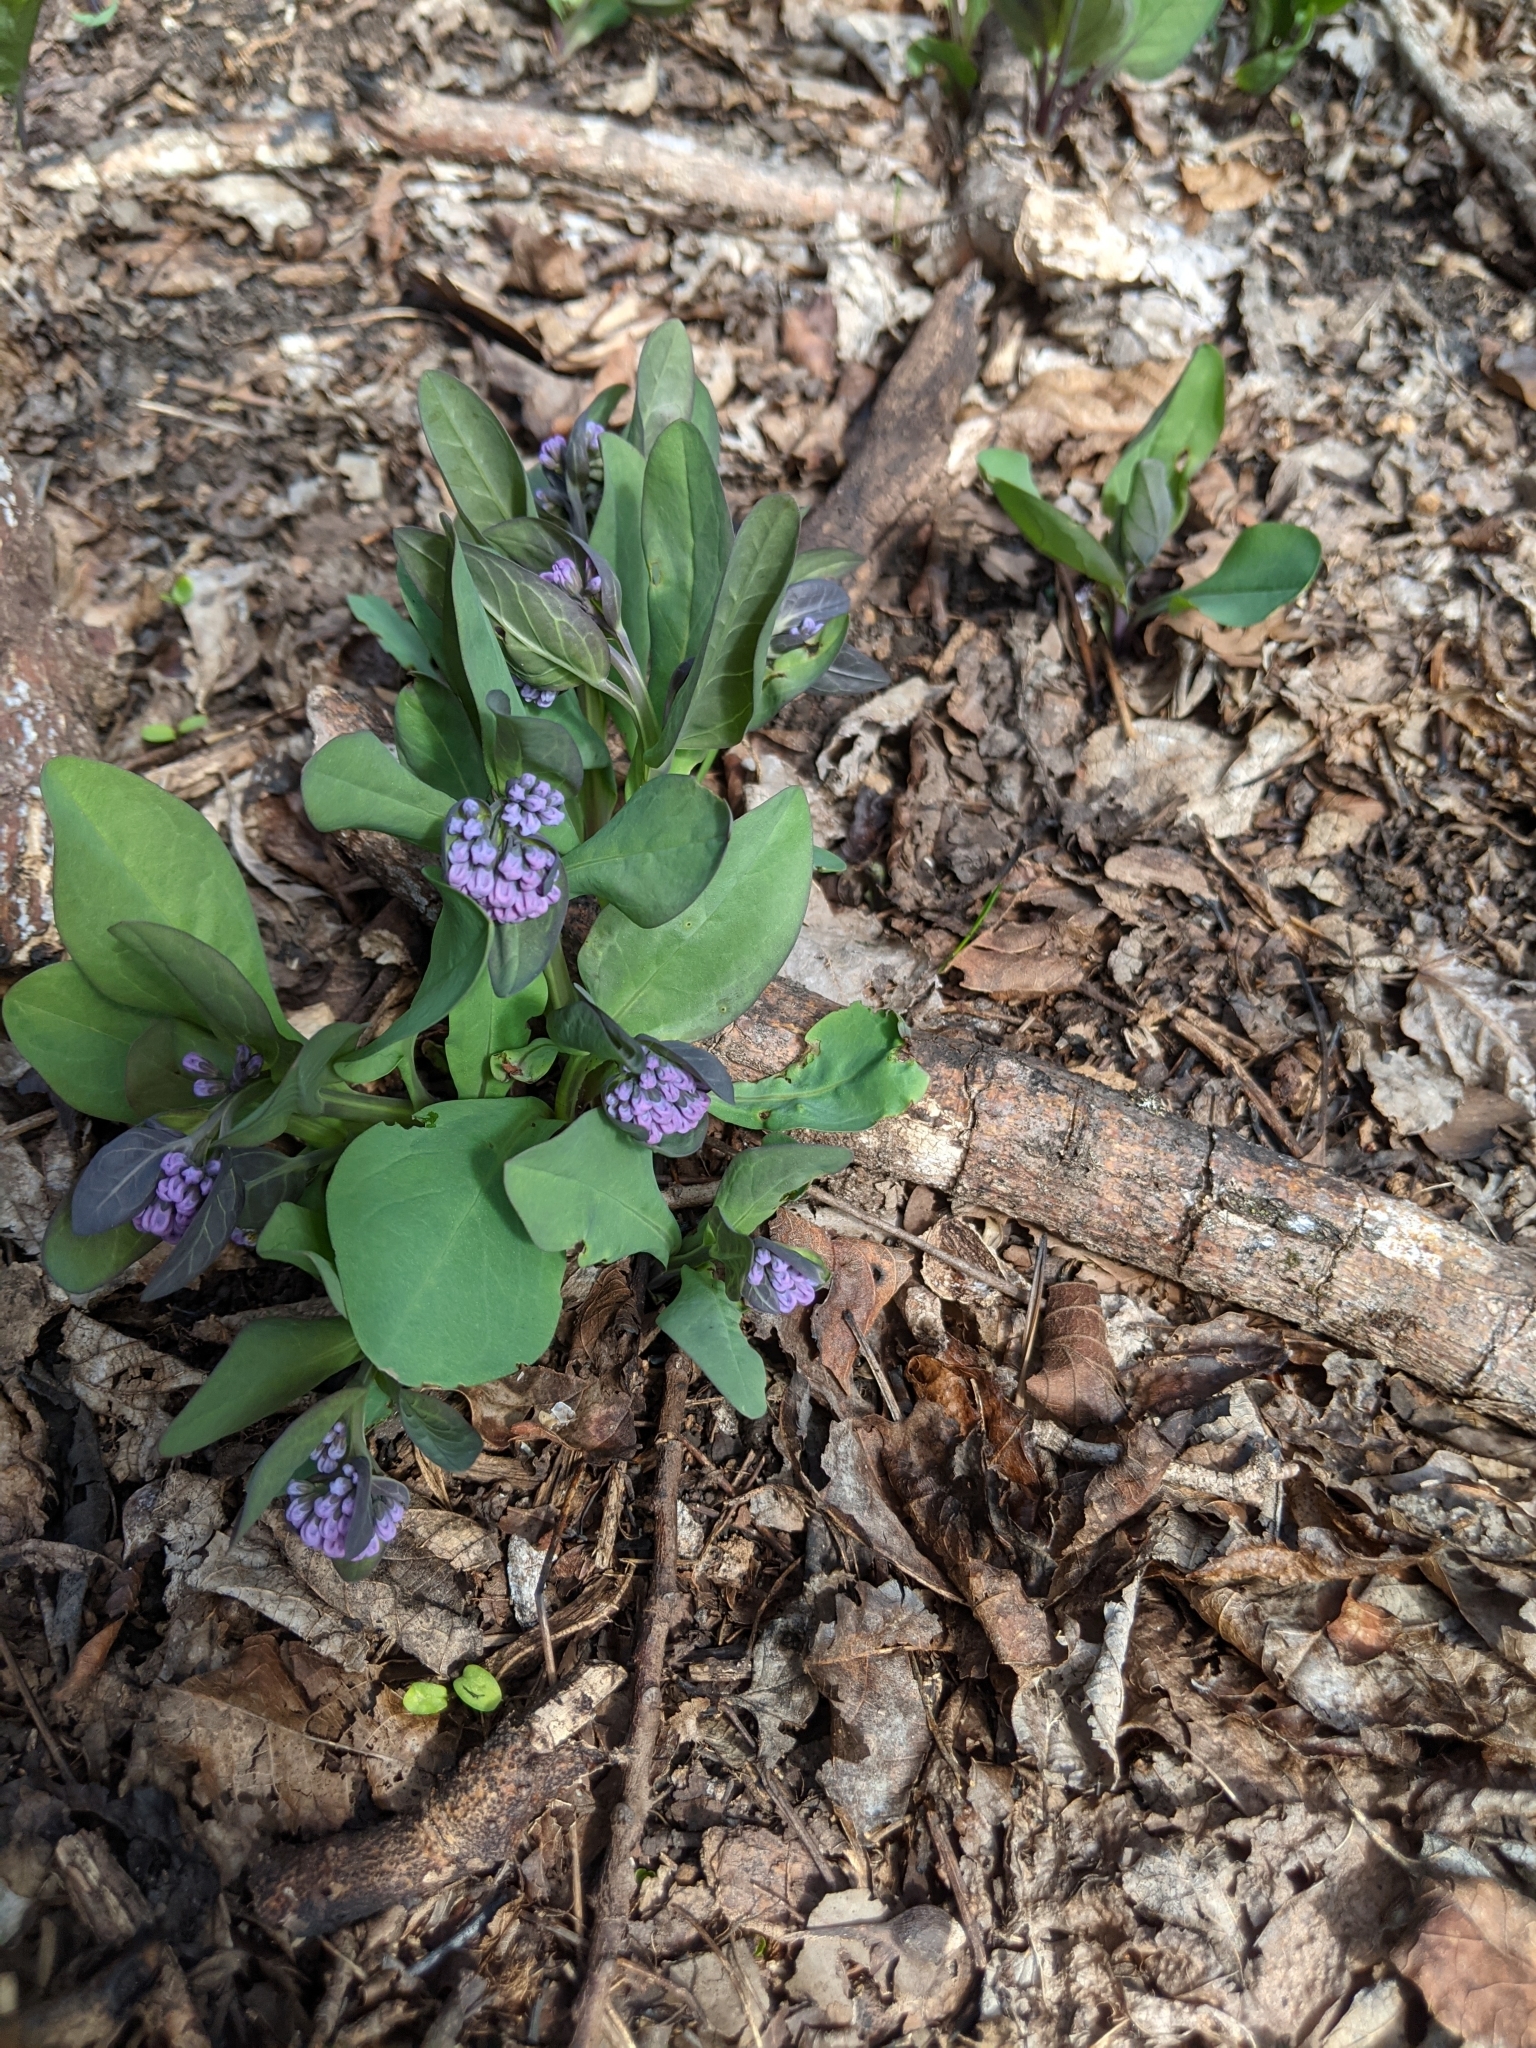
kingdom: Plantae
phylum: Tracheophyta
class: Magnoliopsida
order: Boraginales
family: Boraginaceae
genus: Mertensia
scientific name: Mertensia virginica
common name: Virginia bluebells
